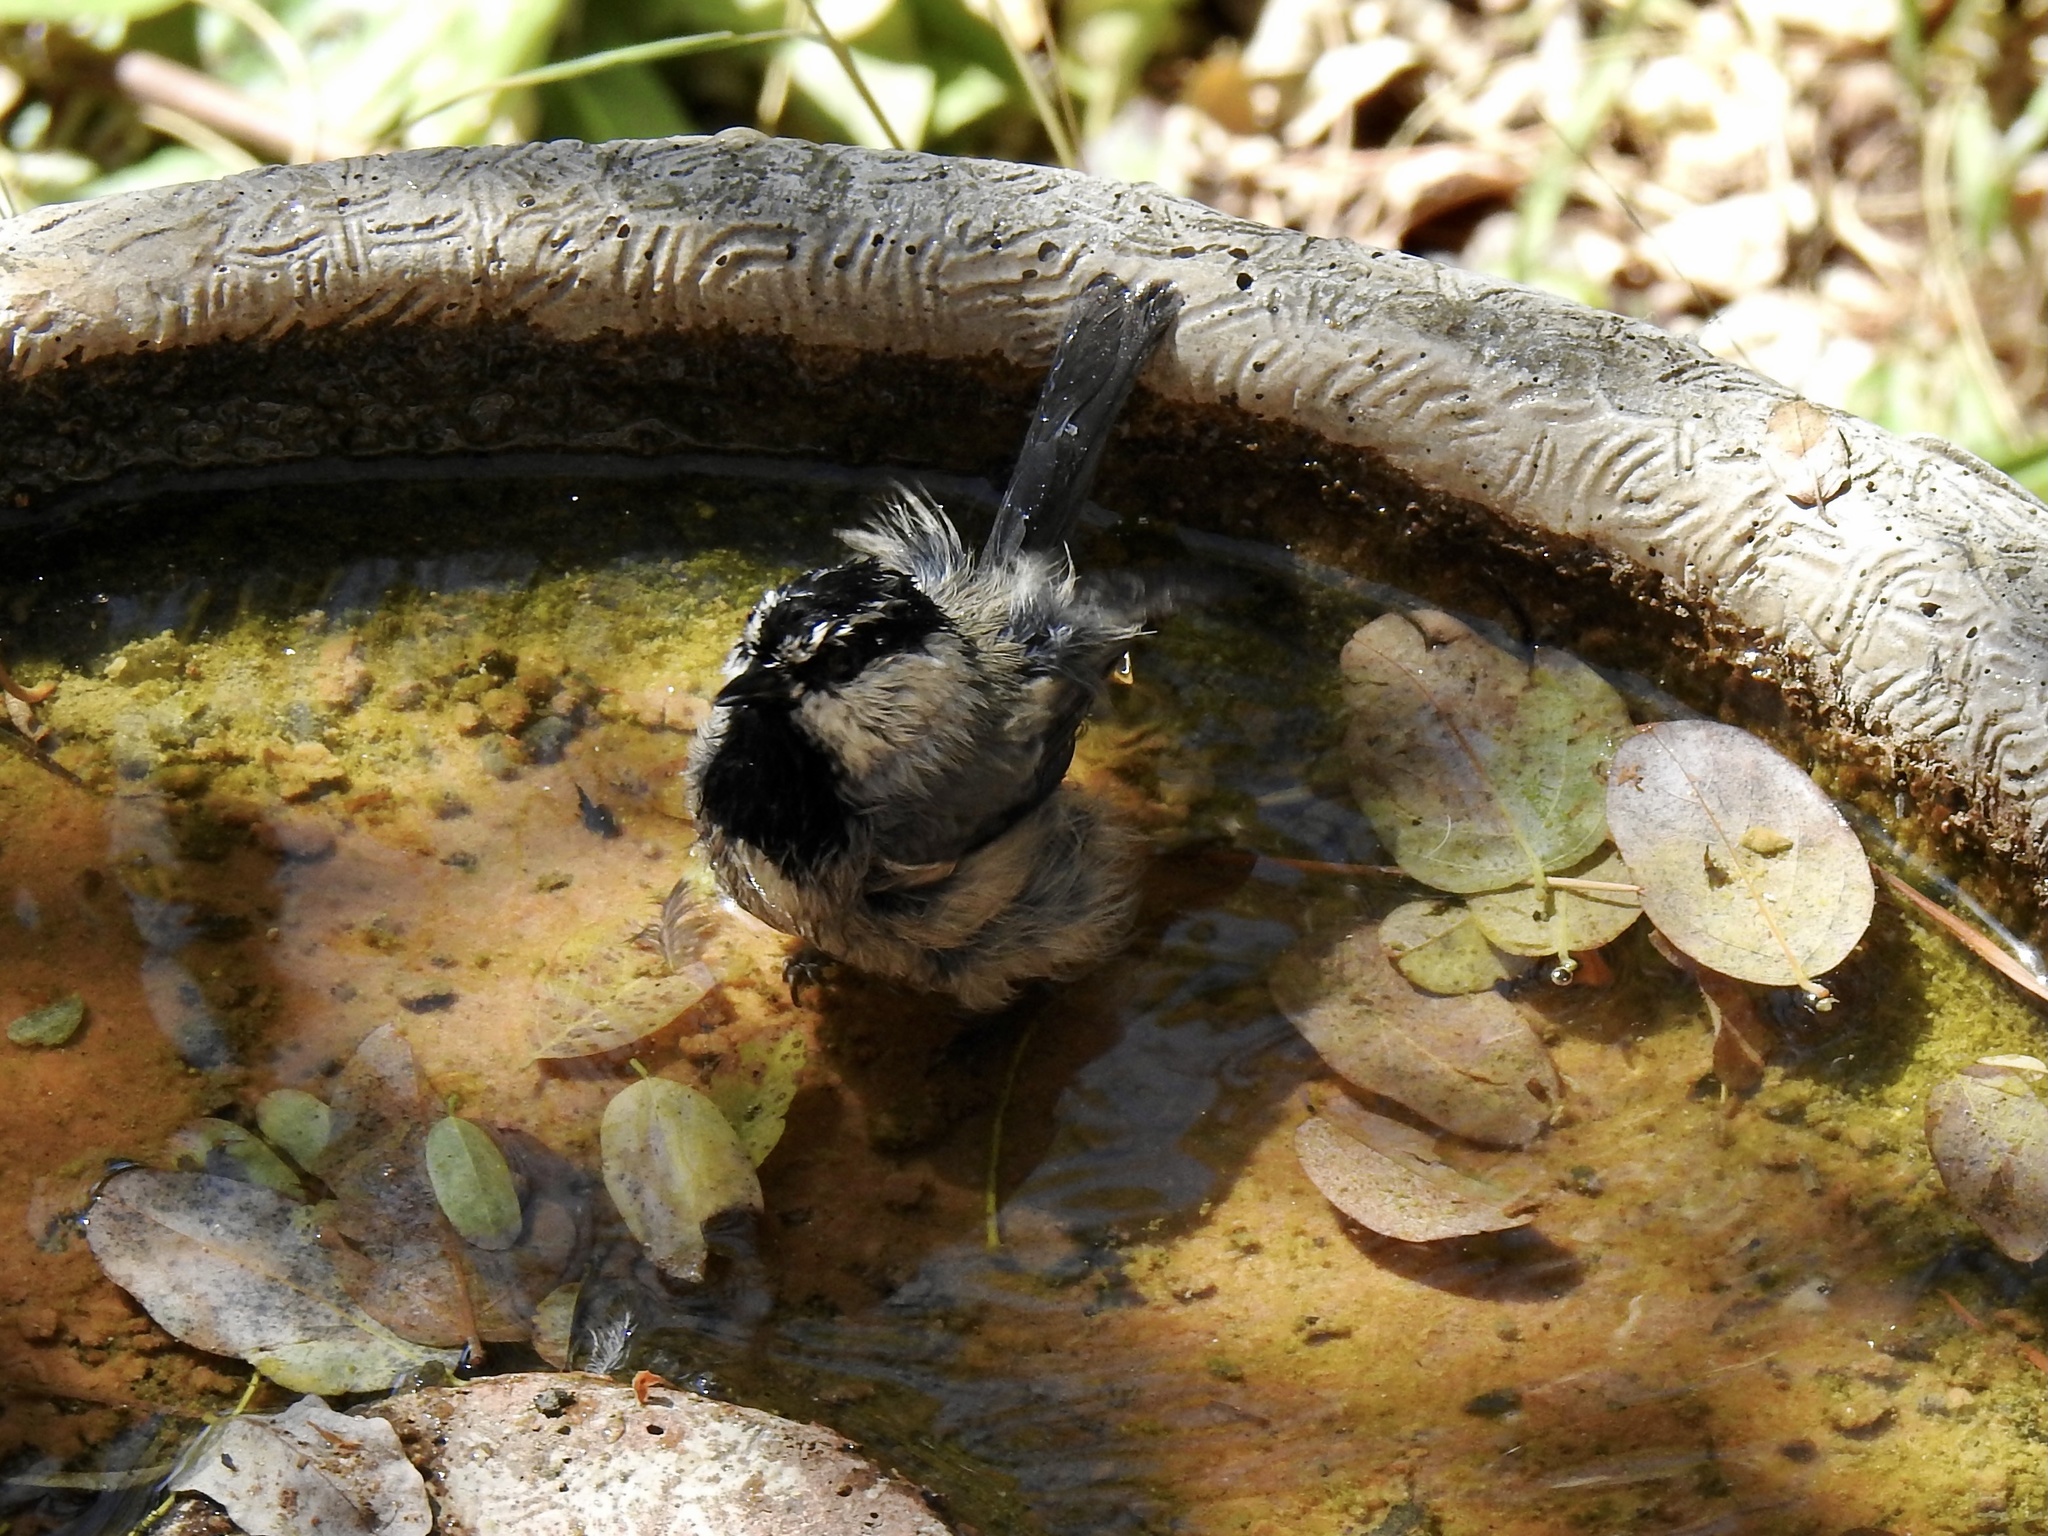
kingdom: Animalia
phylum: Chordata
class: Aves
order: Passeriformes
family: Paridae
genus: Poecile
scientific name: Poecile gambeli
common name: Mountain chickadee
